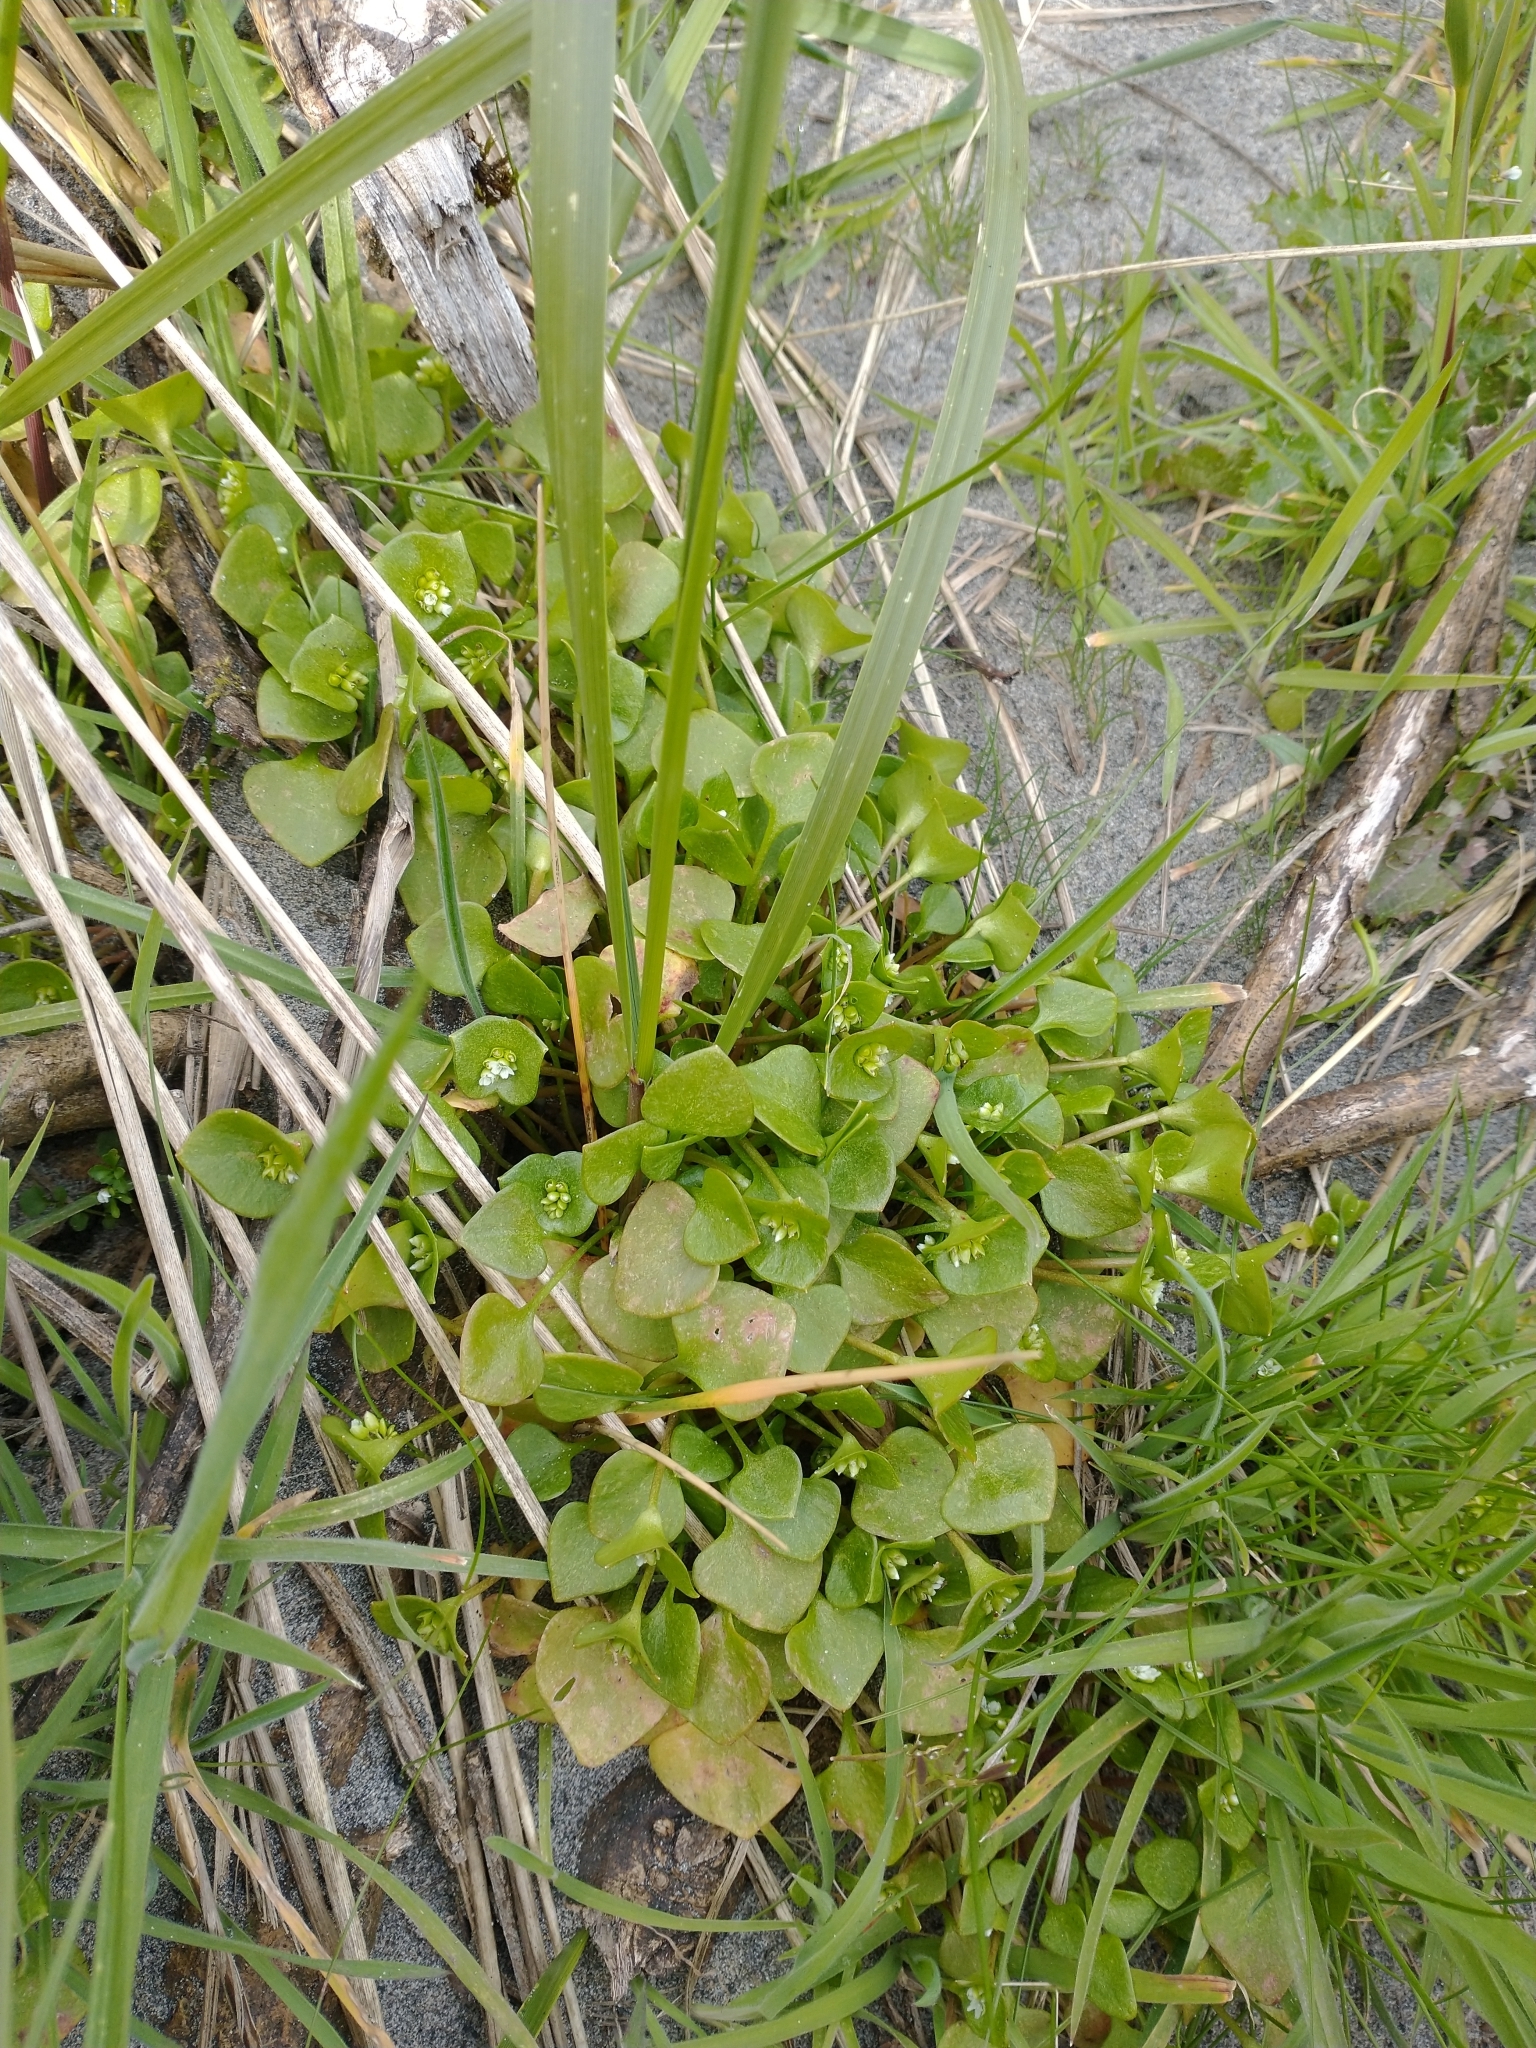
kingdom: Plantae
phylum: Tracheophyta
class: Magnoliopsida
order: Caryophyllales
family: Montiaceae
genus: Claytonia
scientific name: Claytonia perfoliata
